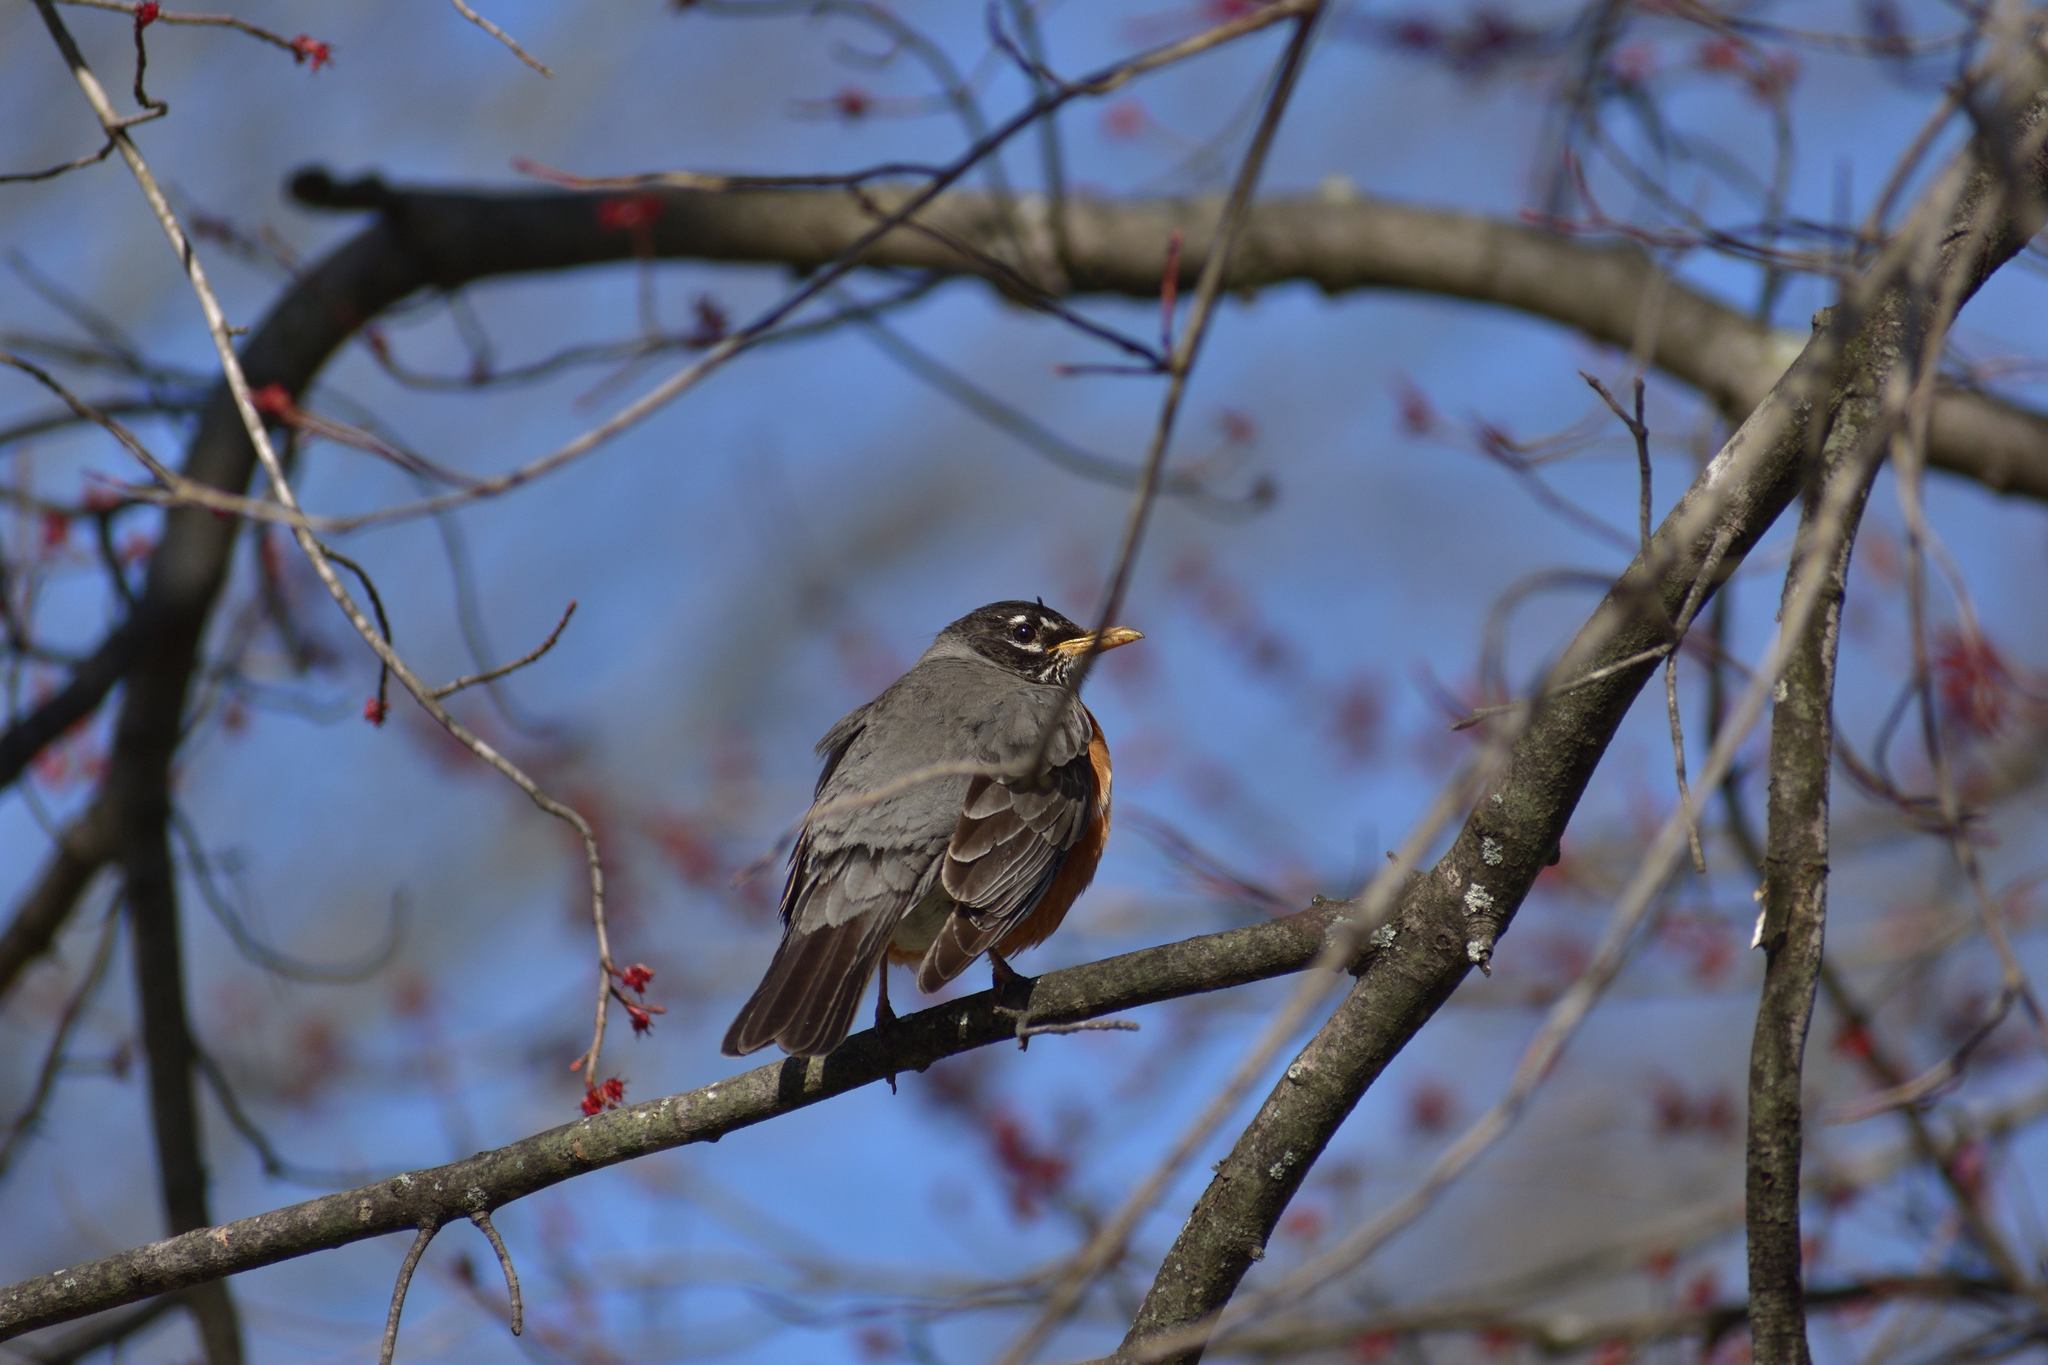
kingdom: Animalia
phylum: Chordata
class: Aves
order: Passeriformes
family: Turdidae
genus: Turdus
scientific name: Turdus migratorius
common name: American robin
